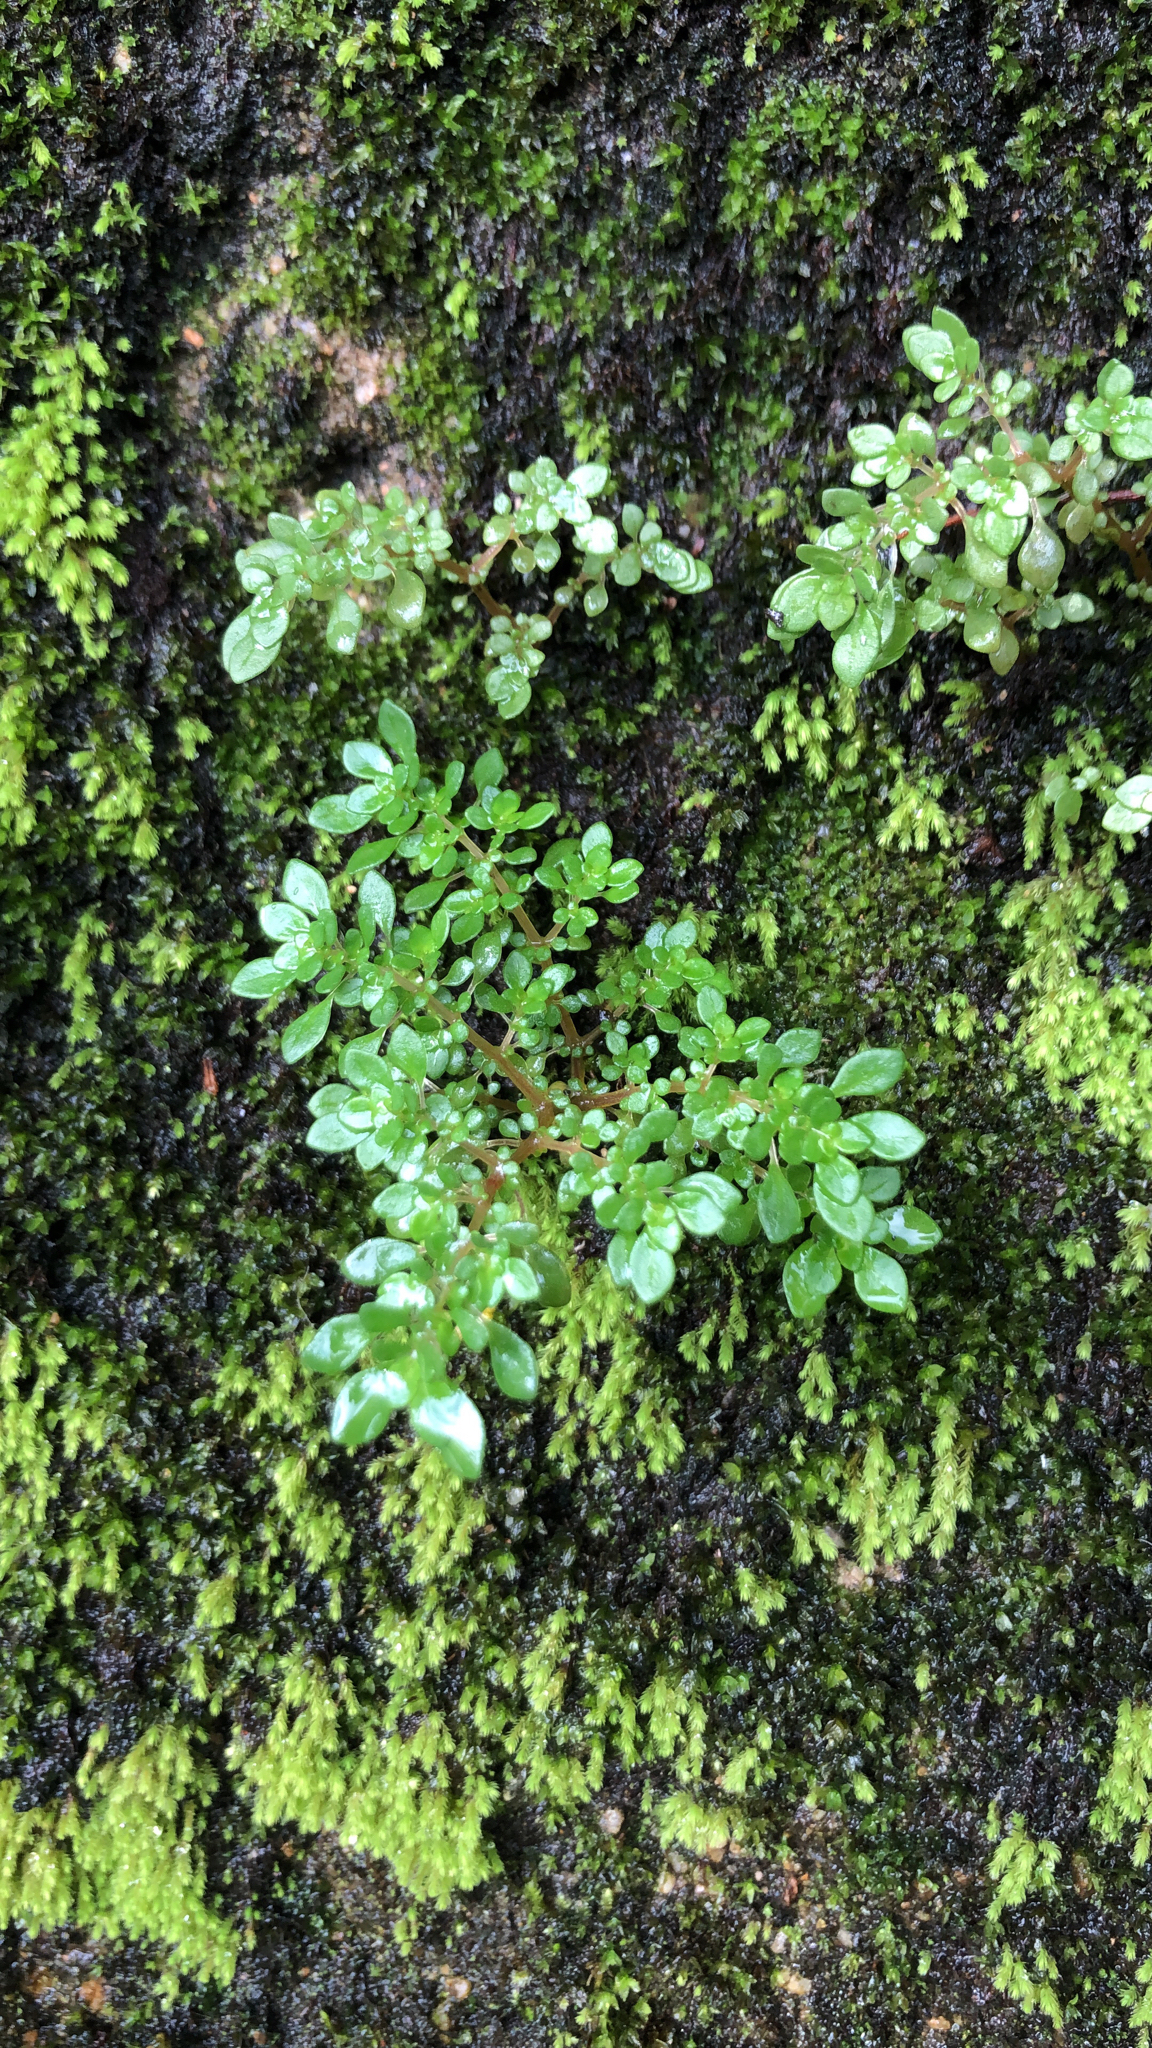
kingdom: Plantae
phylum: Tracheophyta
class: Magnoliopsida
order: Rosales
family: Urticaceae
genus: Pilea
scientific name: Pilea microphylla
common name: Artillery-plant
